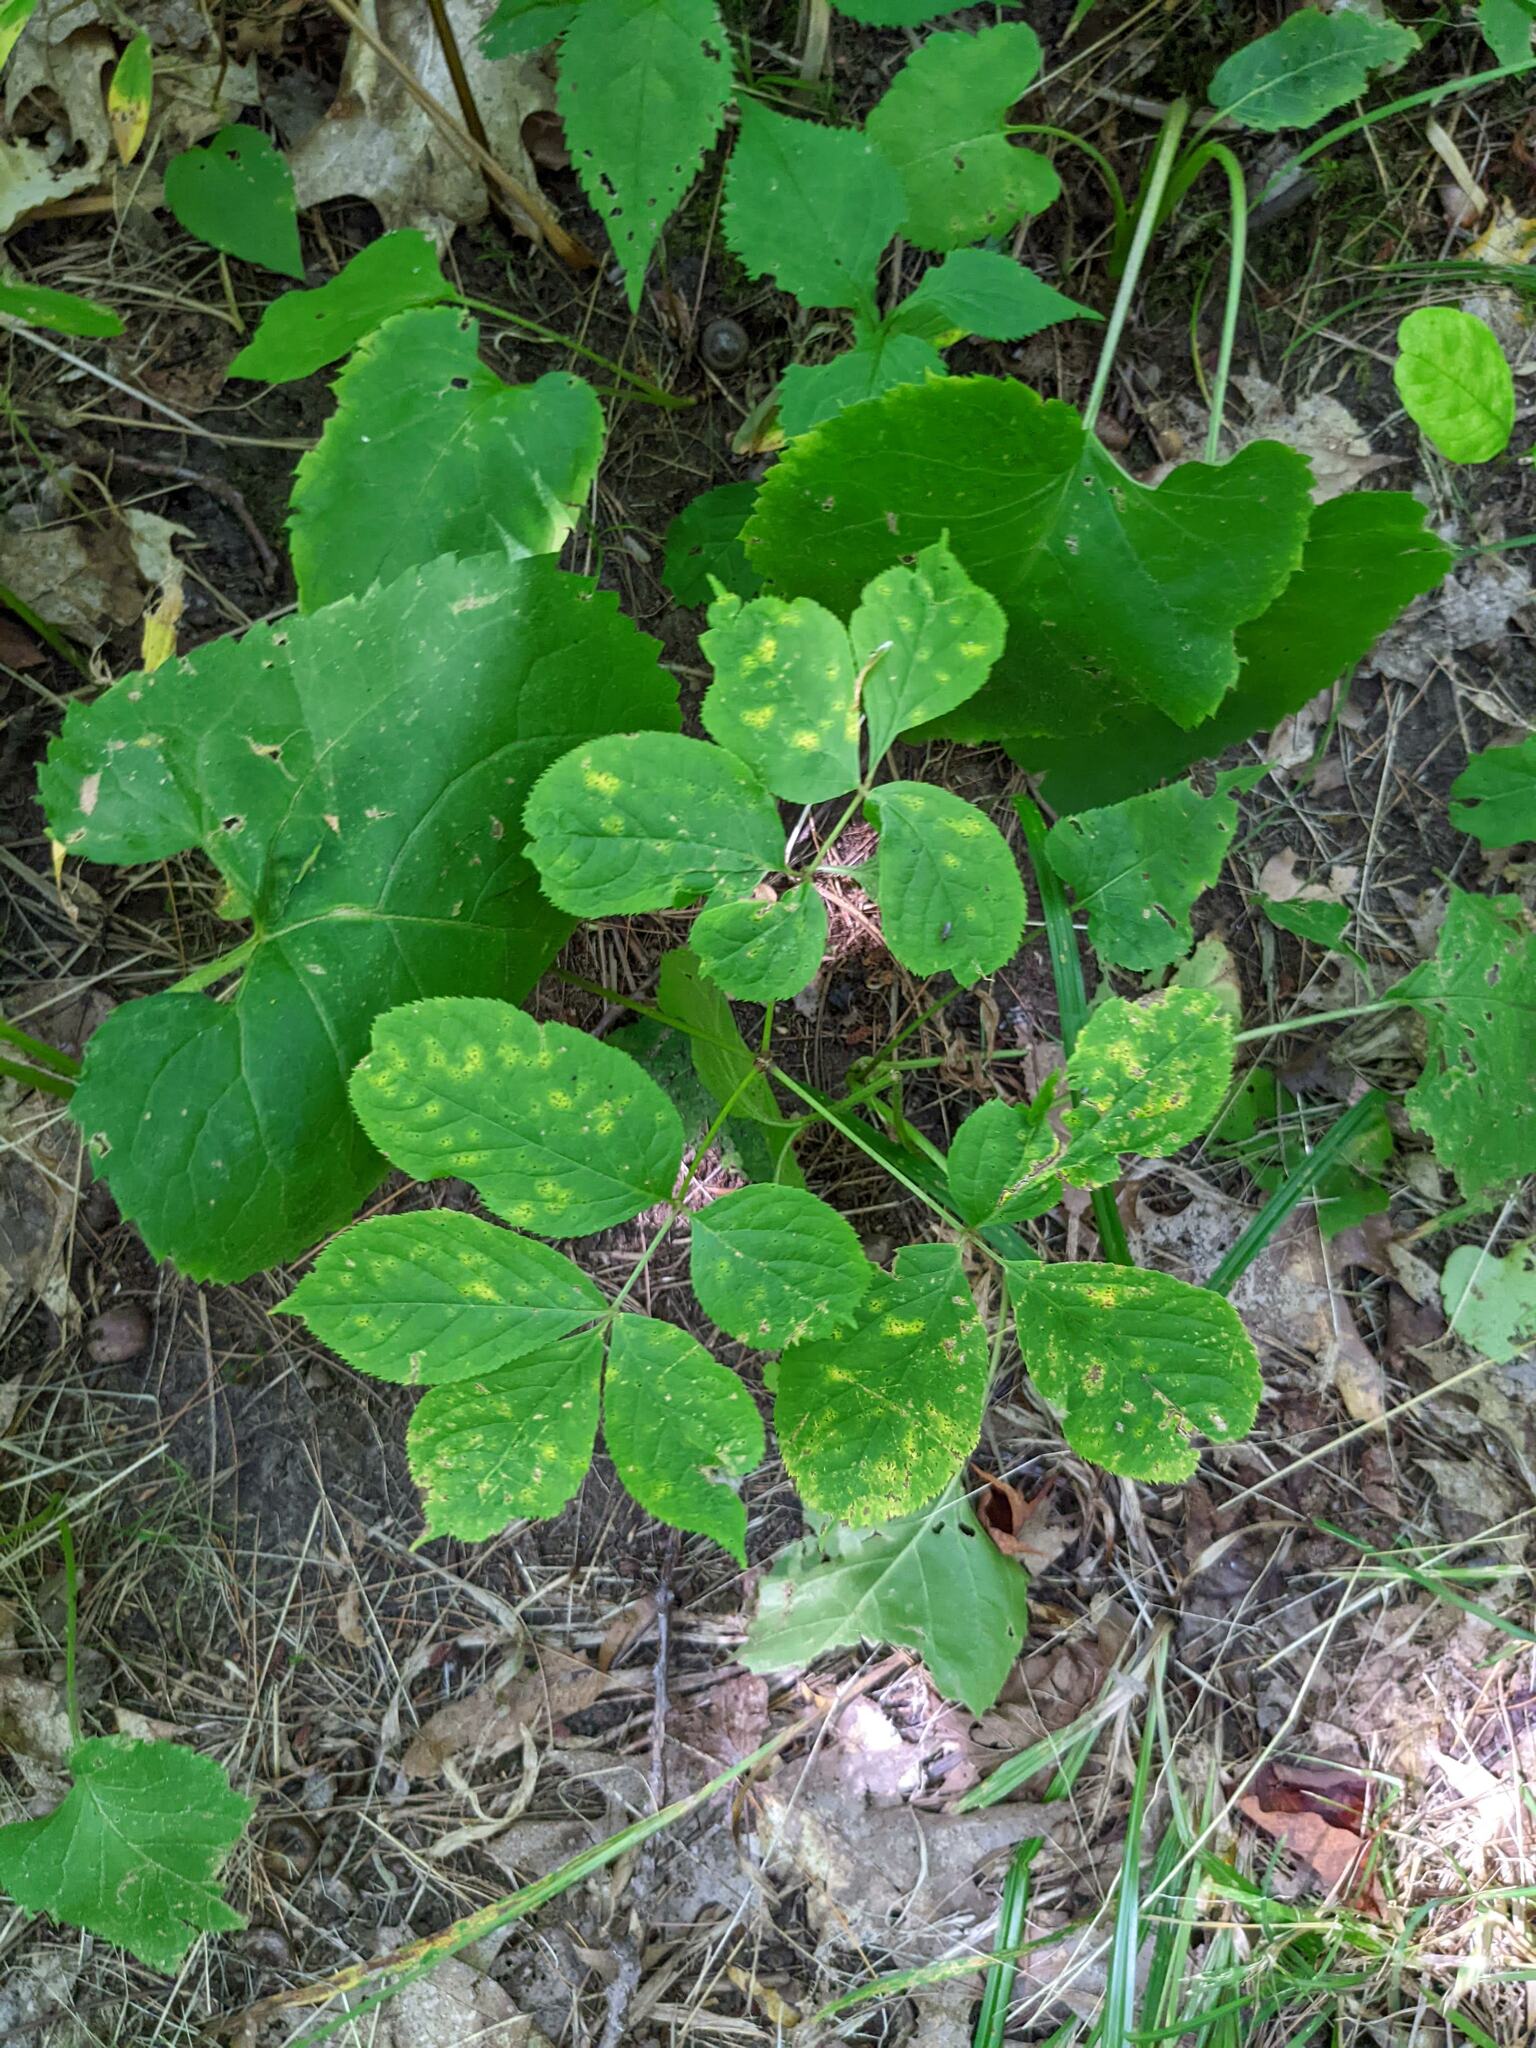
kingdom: Plantae
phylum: Tracheophyta
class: Magnoliopsida
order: Apiales
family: Araliaceae
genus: Aralia
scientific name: Aralia nudicaulis
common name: Wild sarsaparilla
